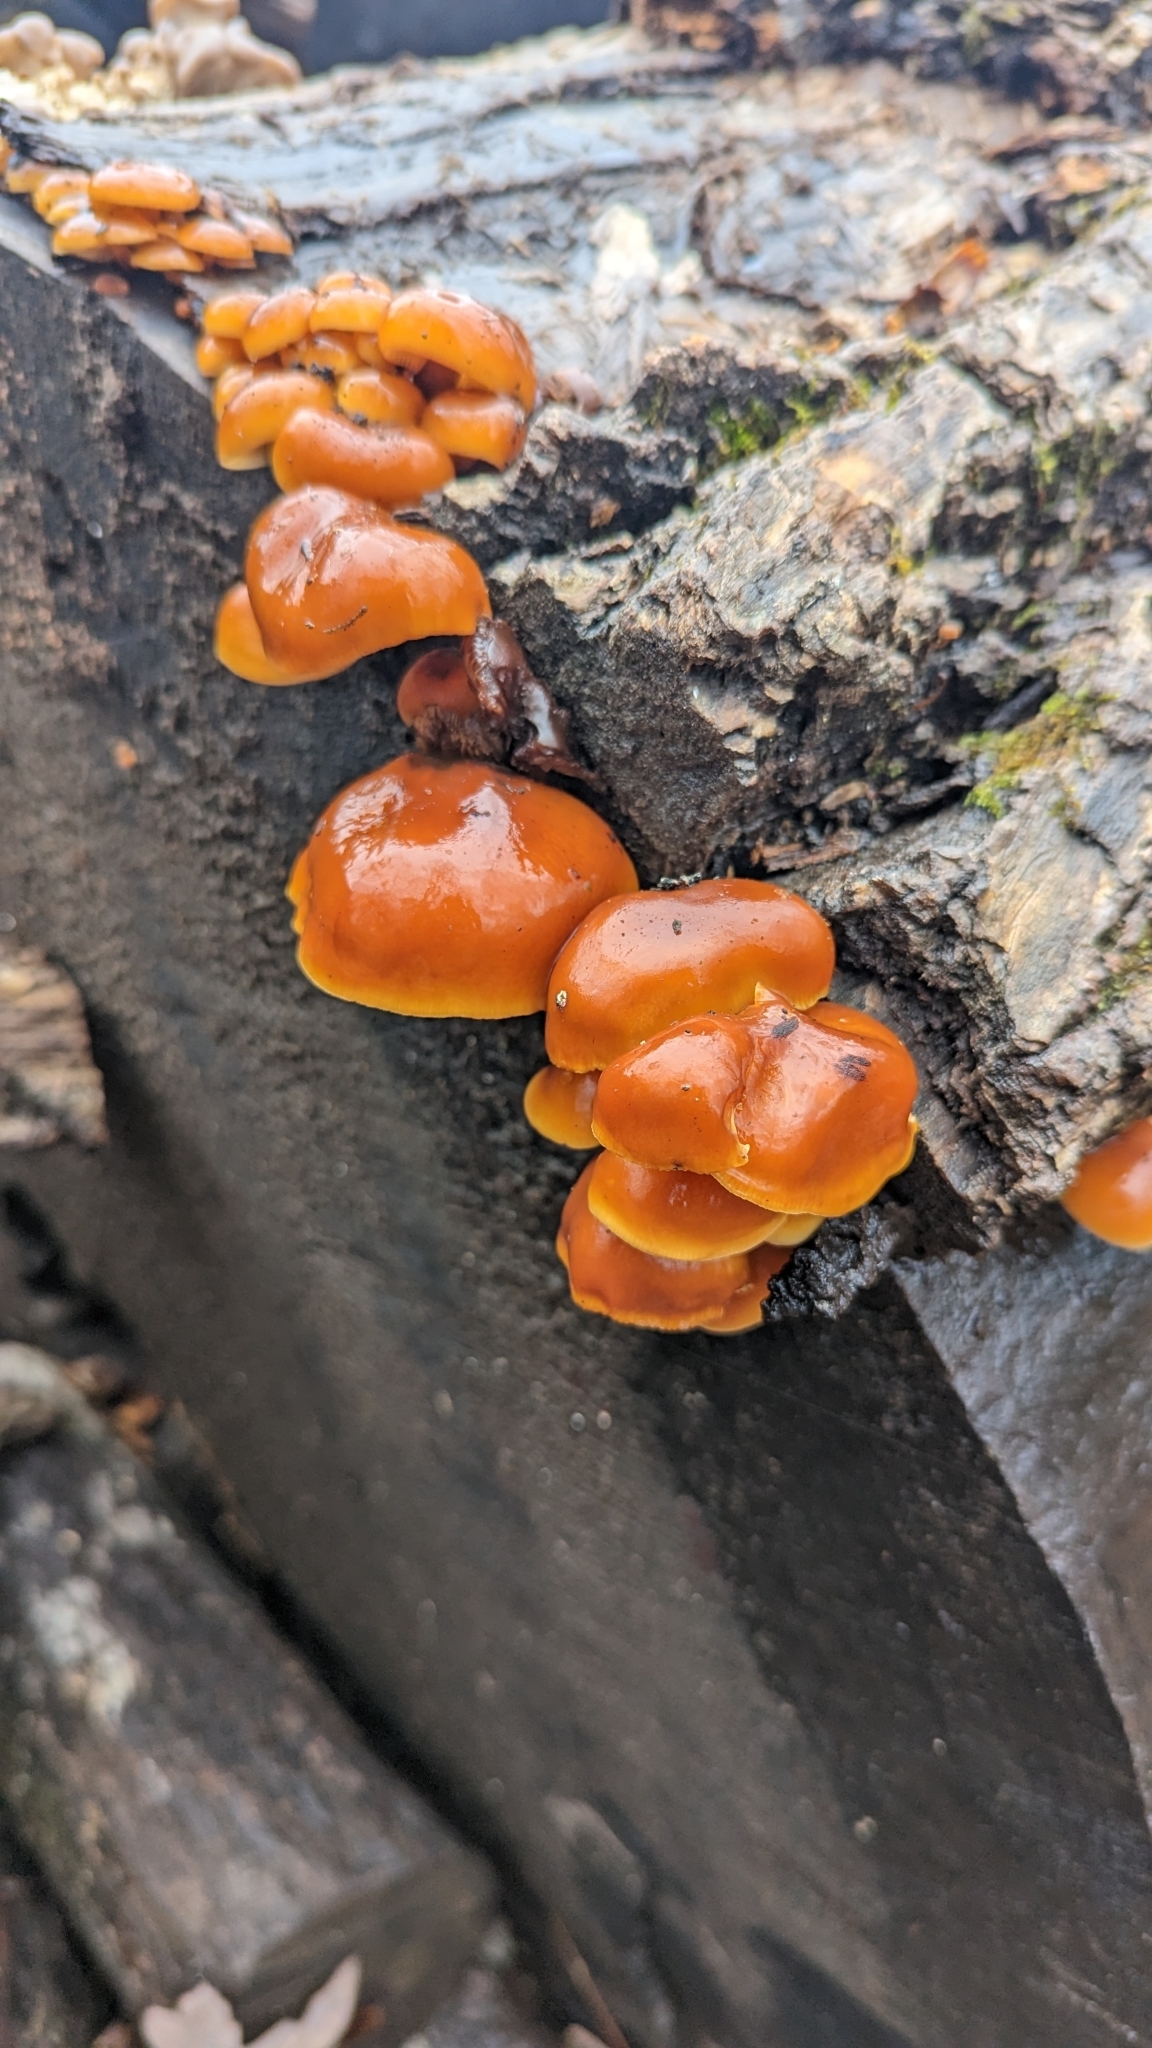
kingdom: Fungi
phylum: Basidiomycota
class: Agaricomycetes
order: Agaricales
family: Physalacriaceae
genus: Flammulina
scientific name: Flammulina velutipes
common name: Velvet shank
